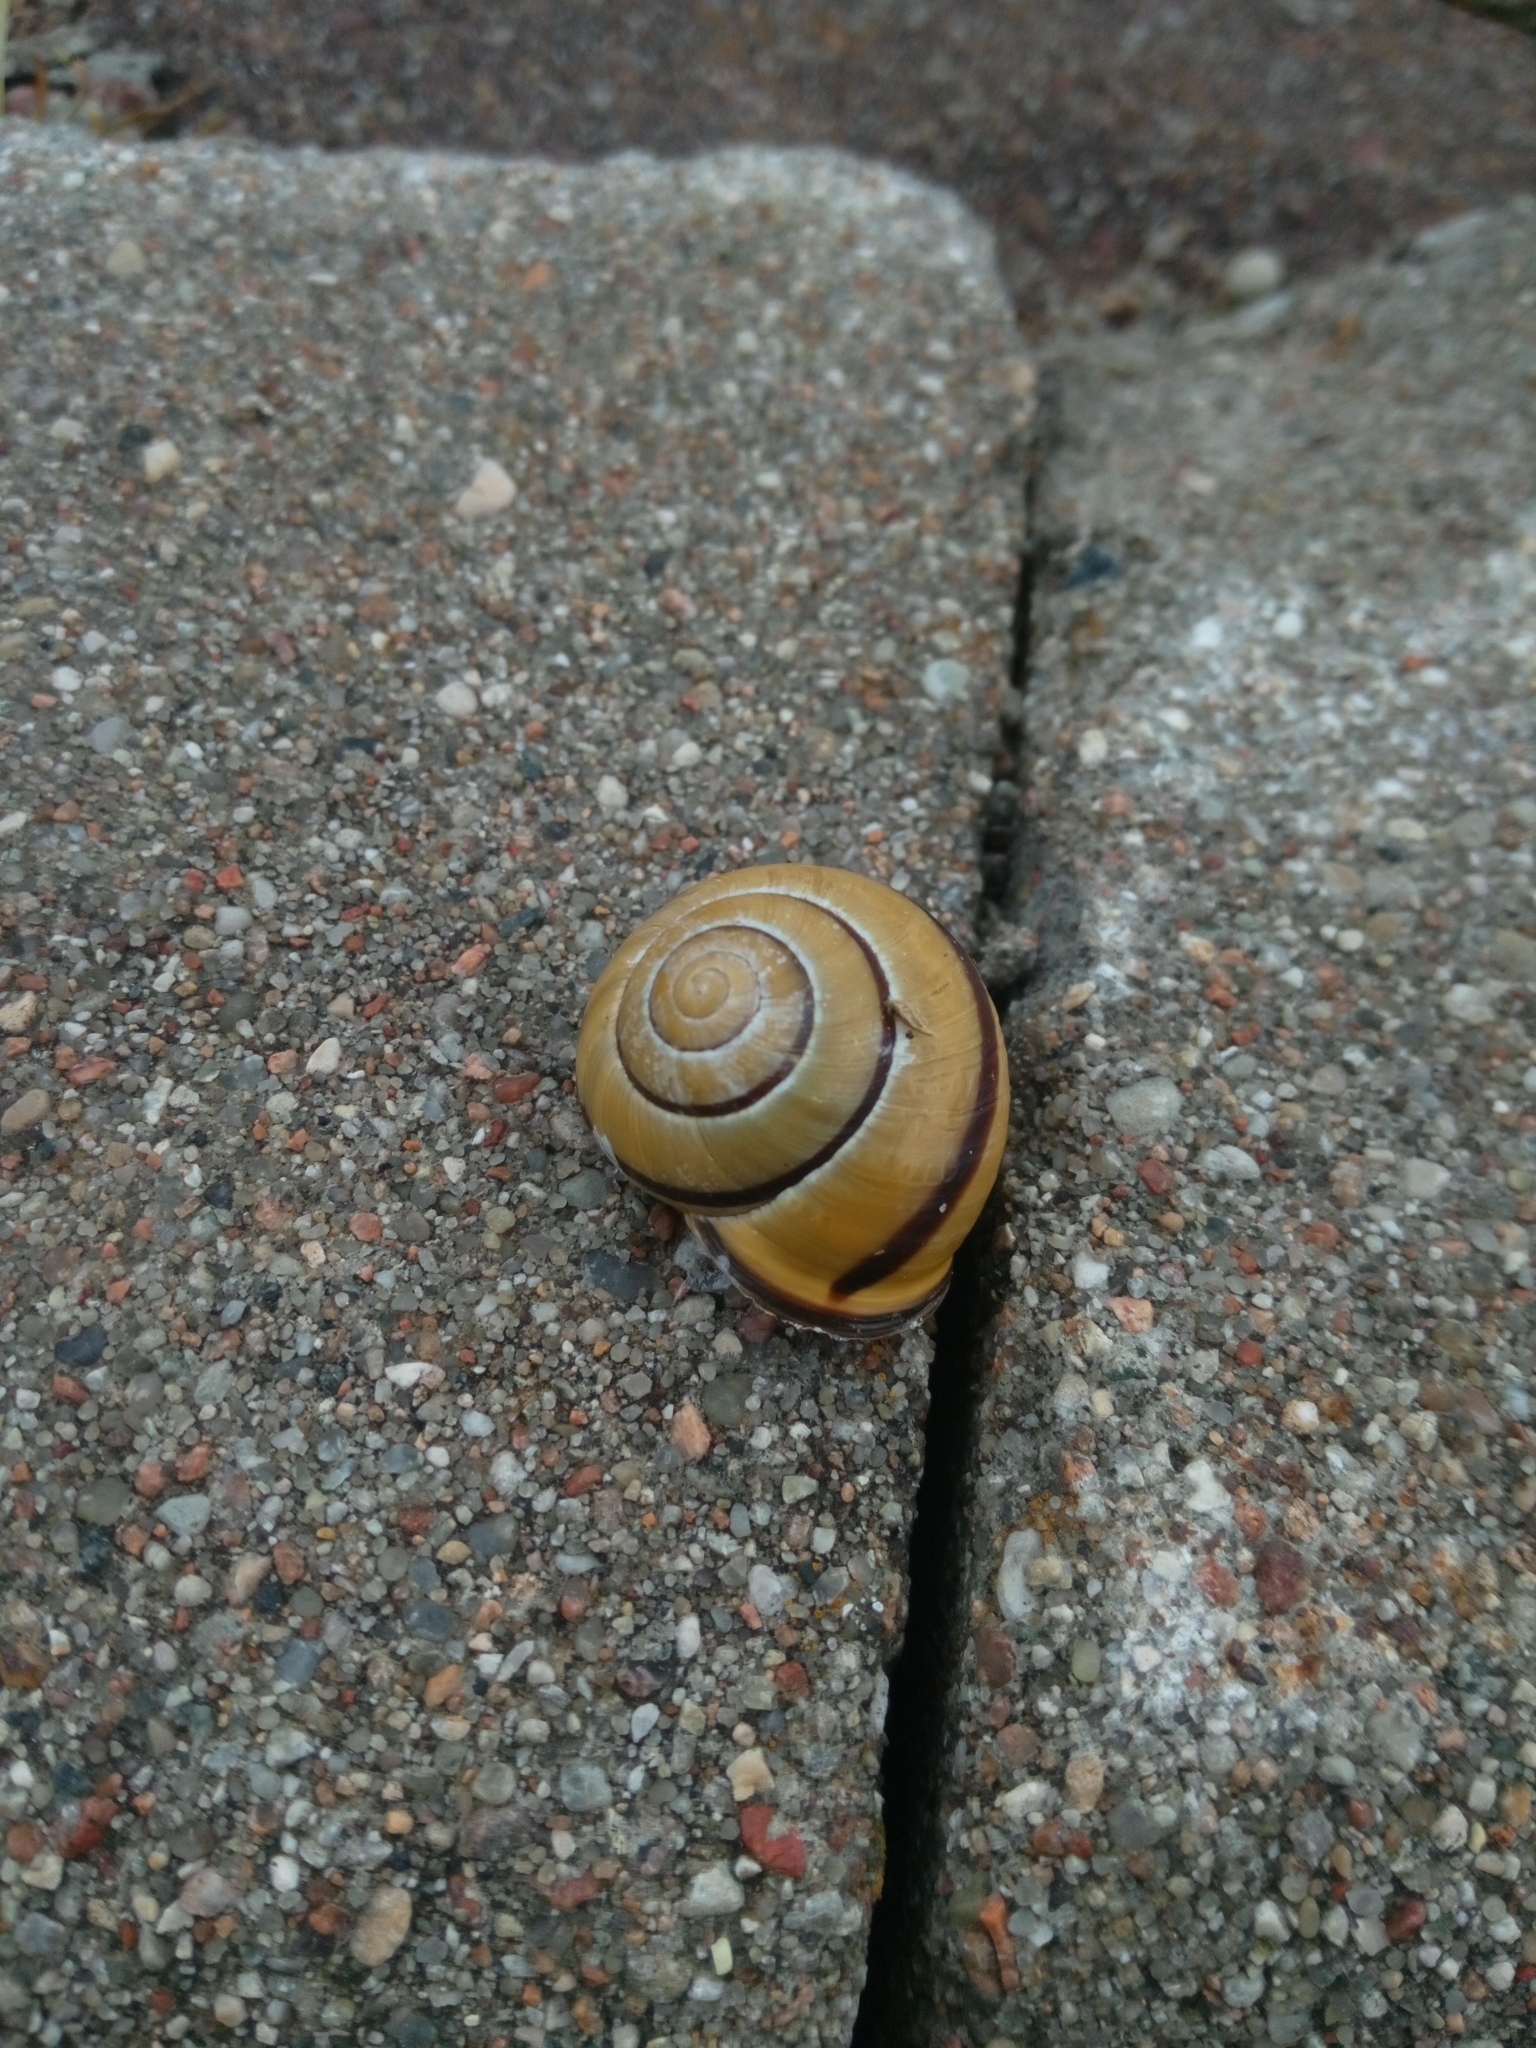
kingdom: Animalia
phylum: Mollusca
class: Gastropoda
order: Stylommatophora
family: Helicidae
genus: Cepaea
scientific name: Cepaea nemoralis
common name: Grovesnail
